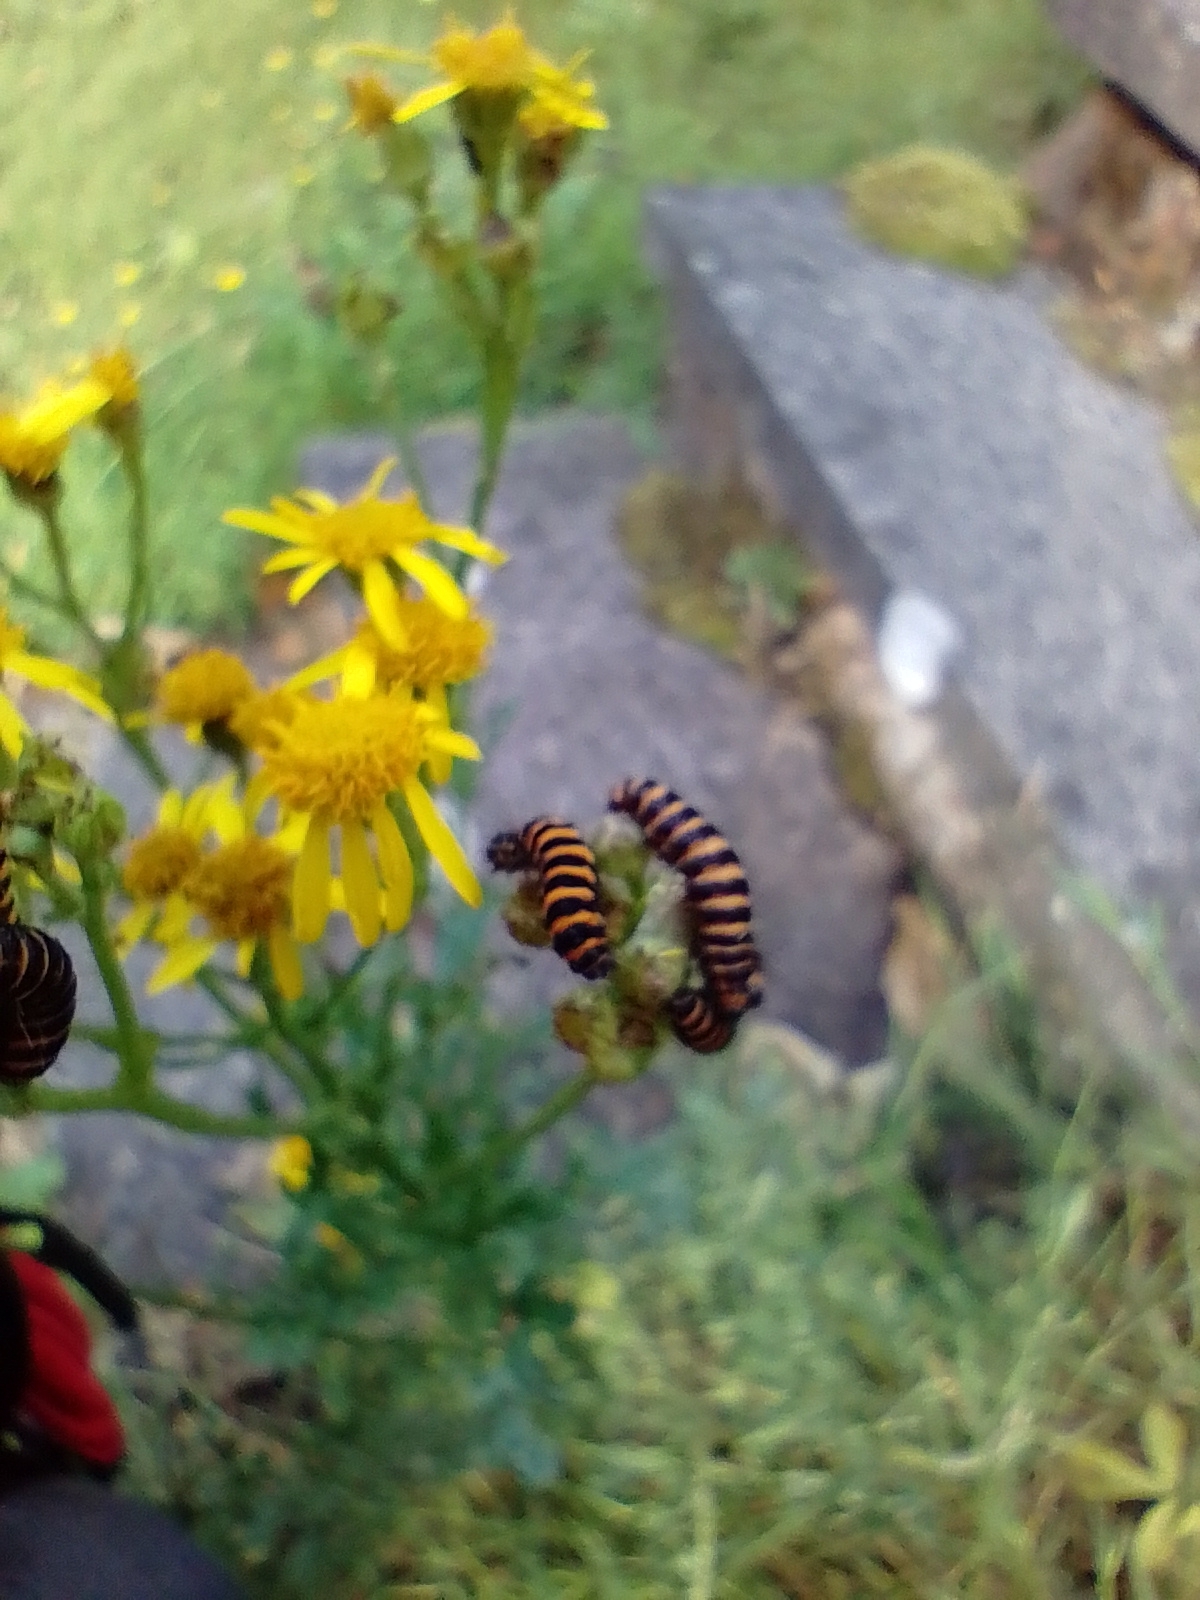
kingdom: Animalia
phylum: Arthropoda
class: Insecta
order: Lepidoptera
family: Erebidae
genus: Tyria
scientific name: Tyria jacobaeae
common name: Cinnabar
